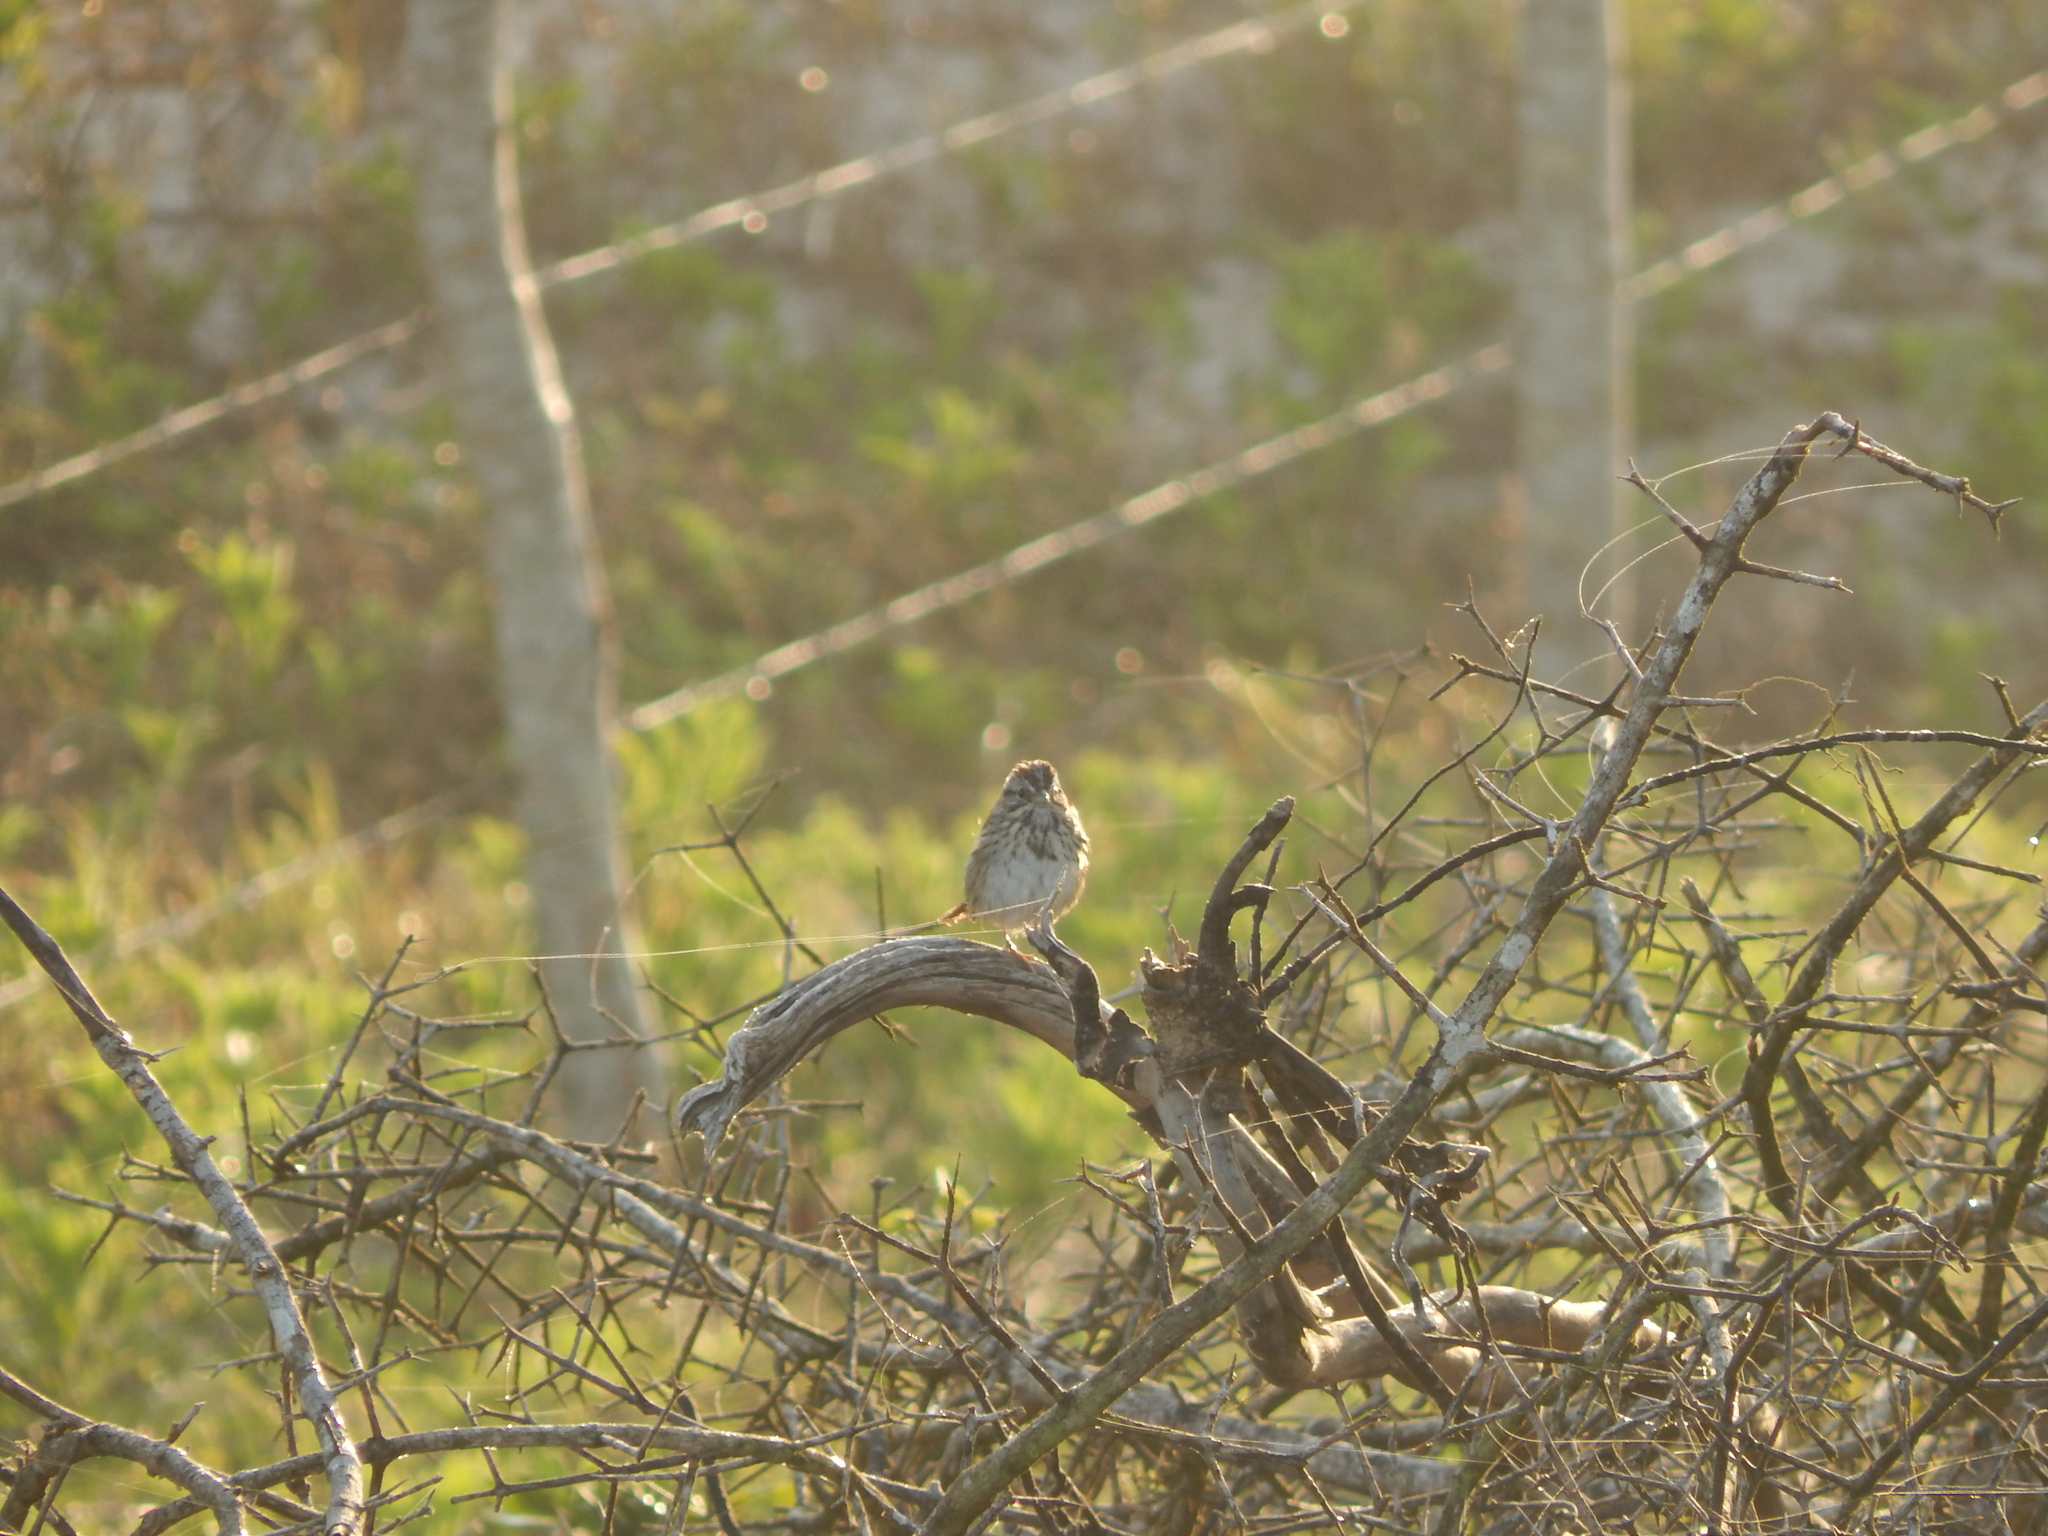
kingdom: Animalia
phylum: Chordata
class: Aves
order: Passeriformes
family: Passerellidae
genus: Melospiza
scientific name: Melospiza lincolnii
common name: Lincoln's sparrow
